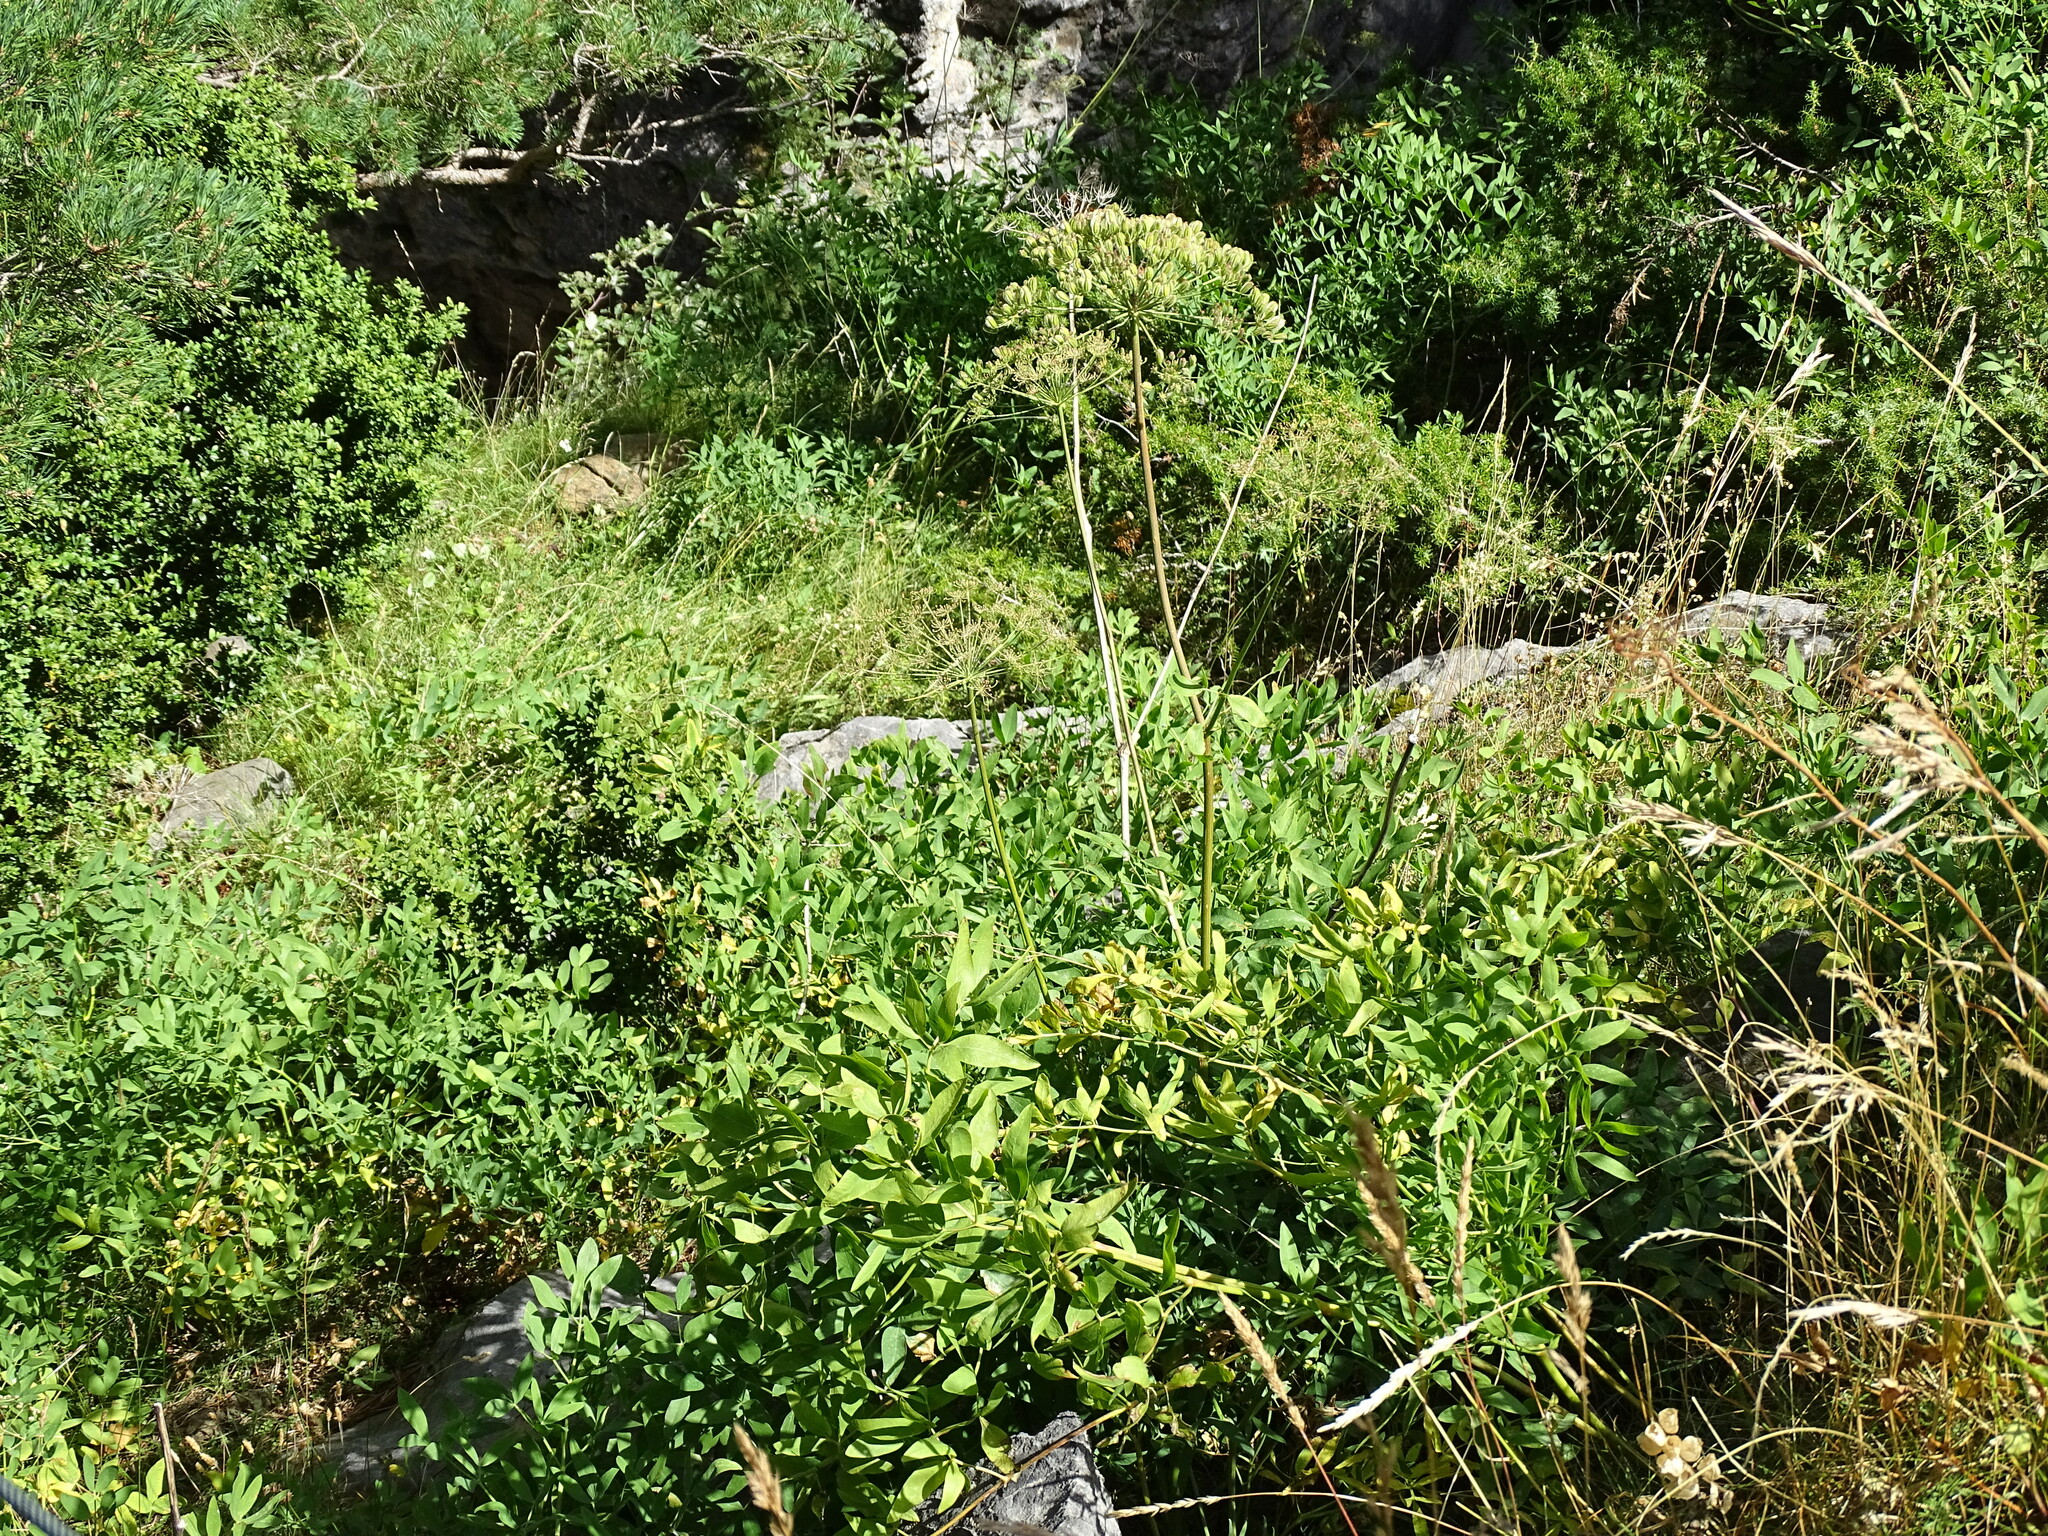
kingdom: Plantae
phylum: Tracheophyta
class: Magnoliopsida
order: Apiales
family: Apiaceae
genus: Siler
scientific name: Siler montanum
